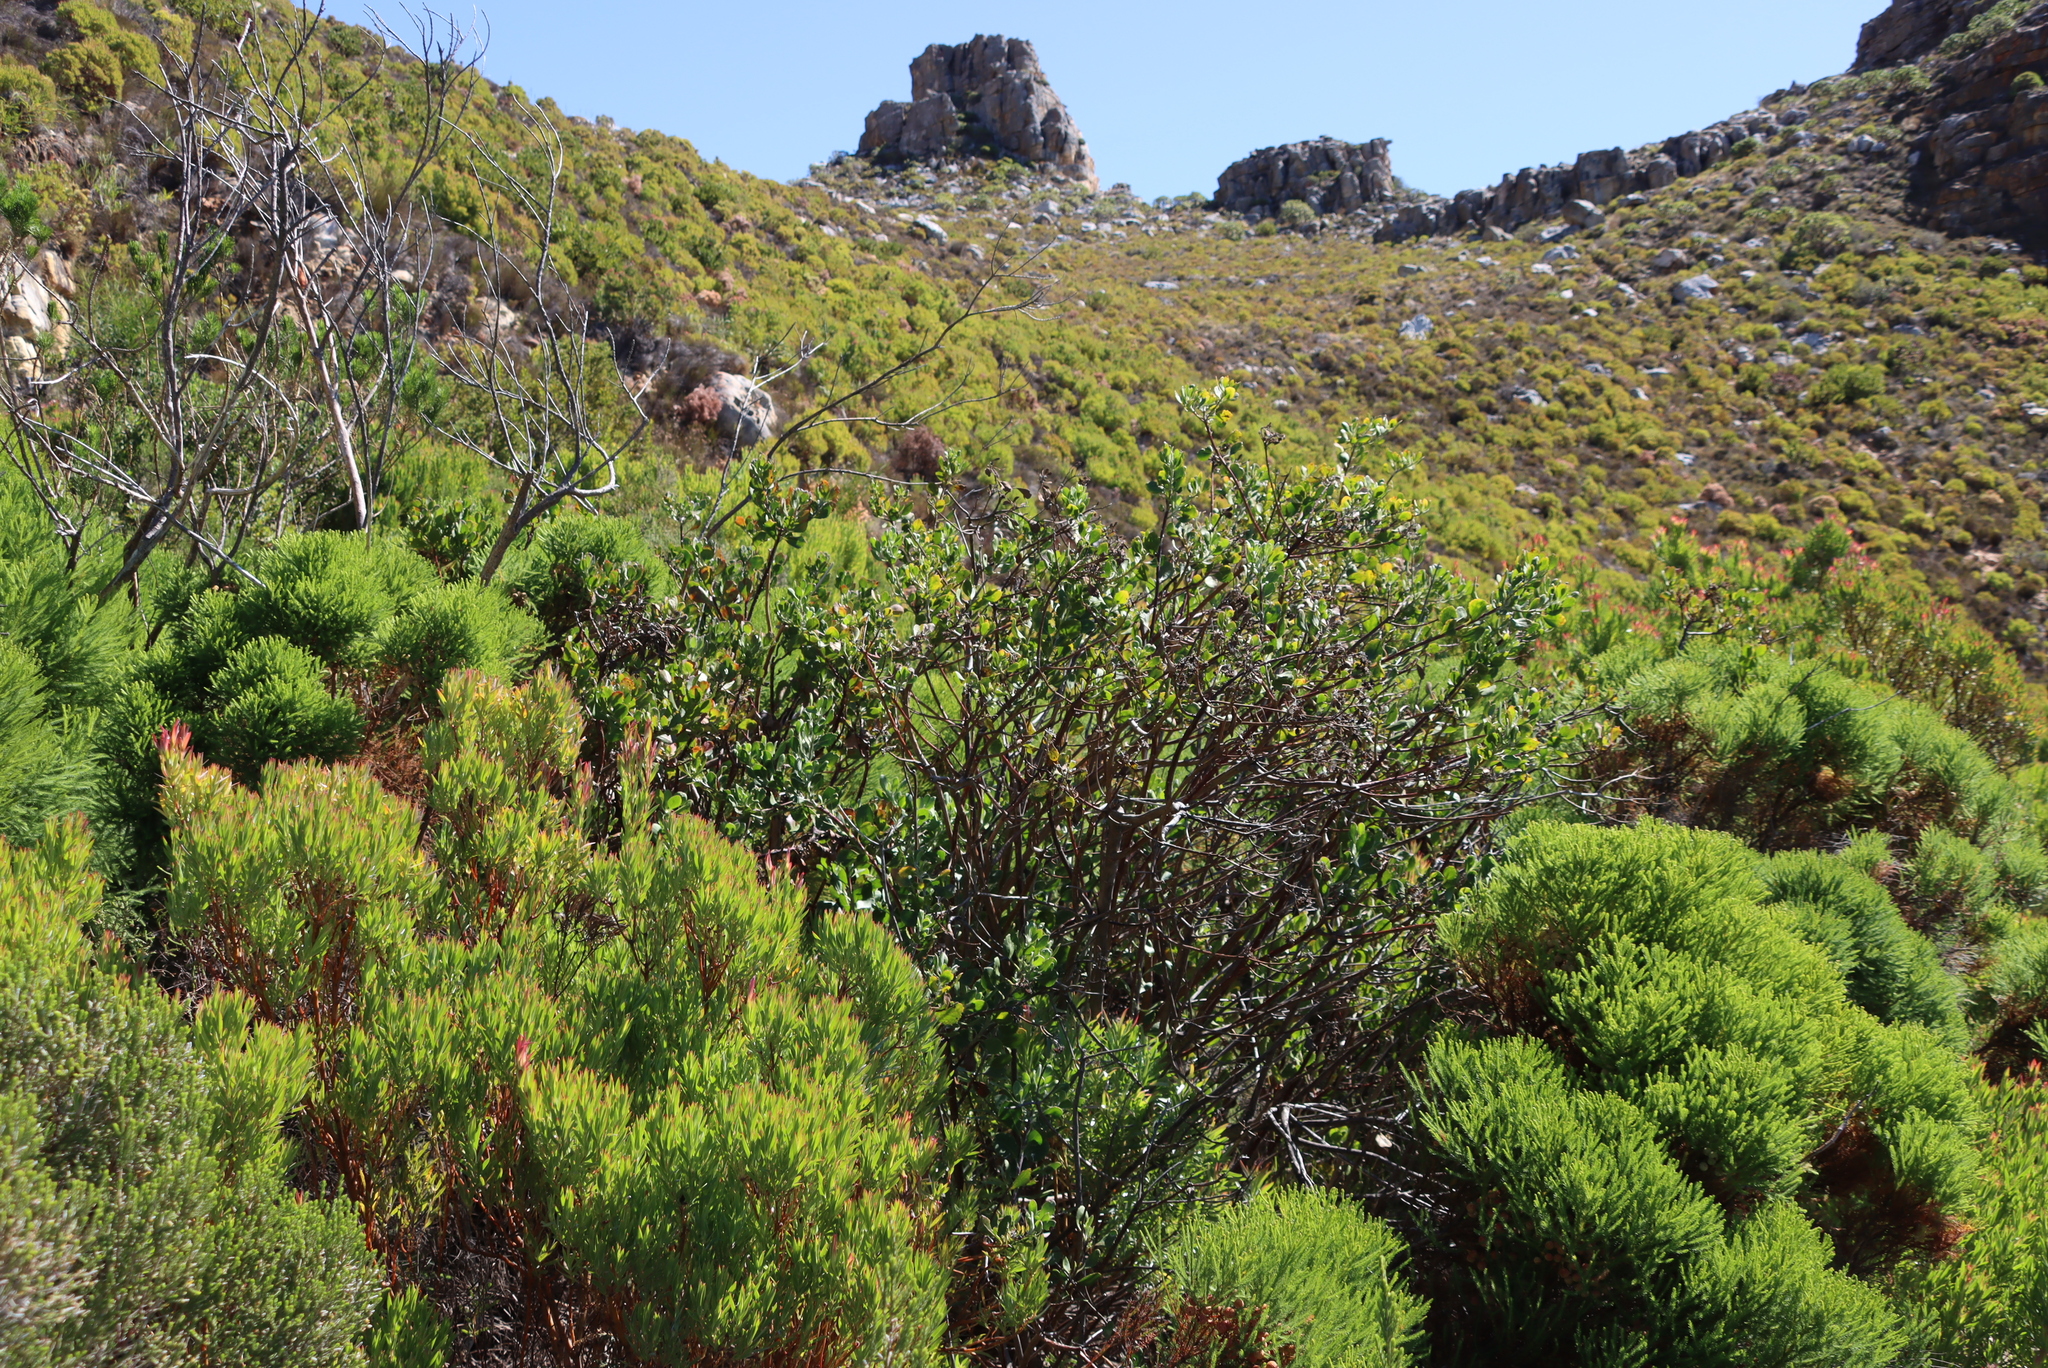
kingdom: Plantae
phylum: Tracheophyta
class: Magnoliopsida
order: Asterales
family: Asteraceae
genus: Osteospermum
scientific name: Osteospermum moniliferum
